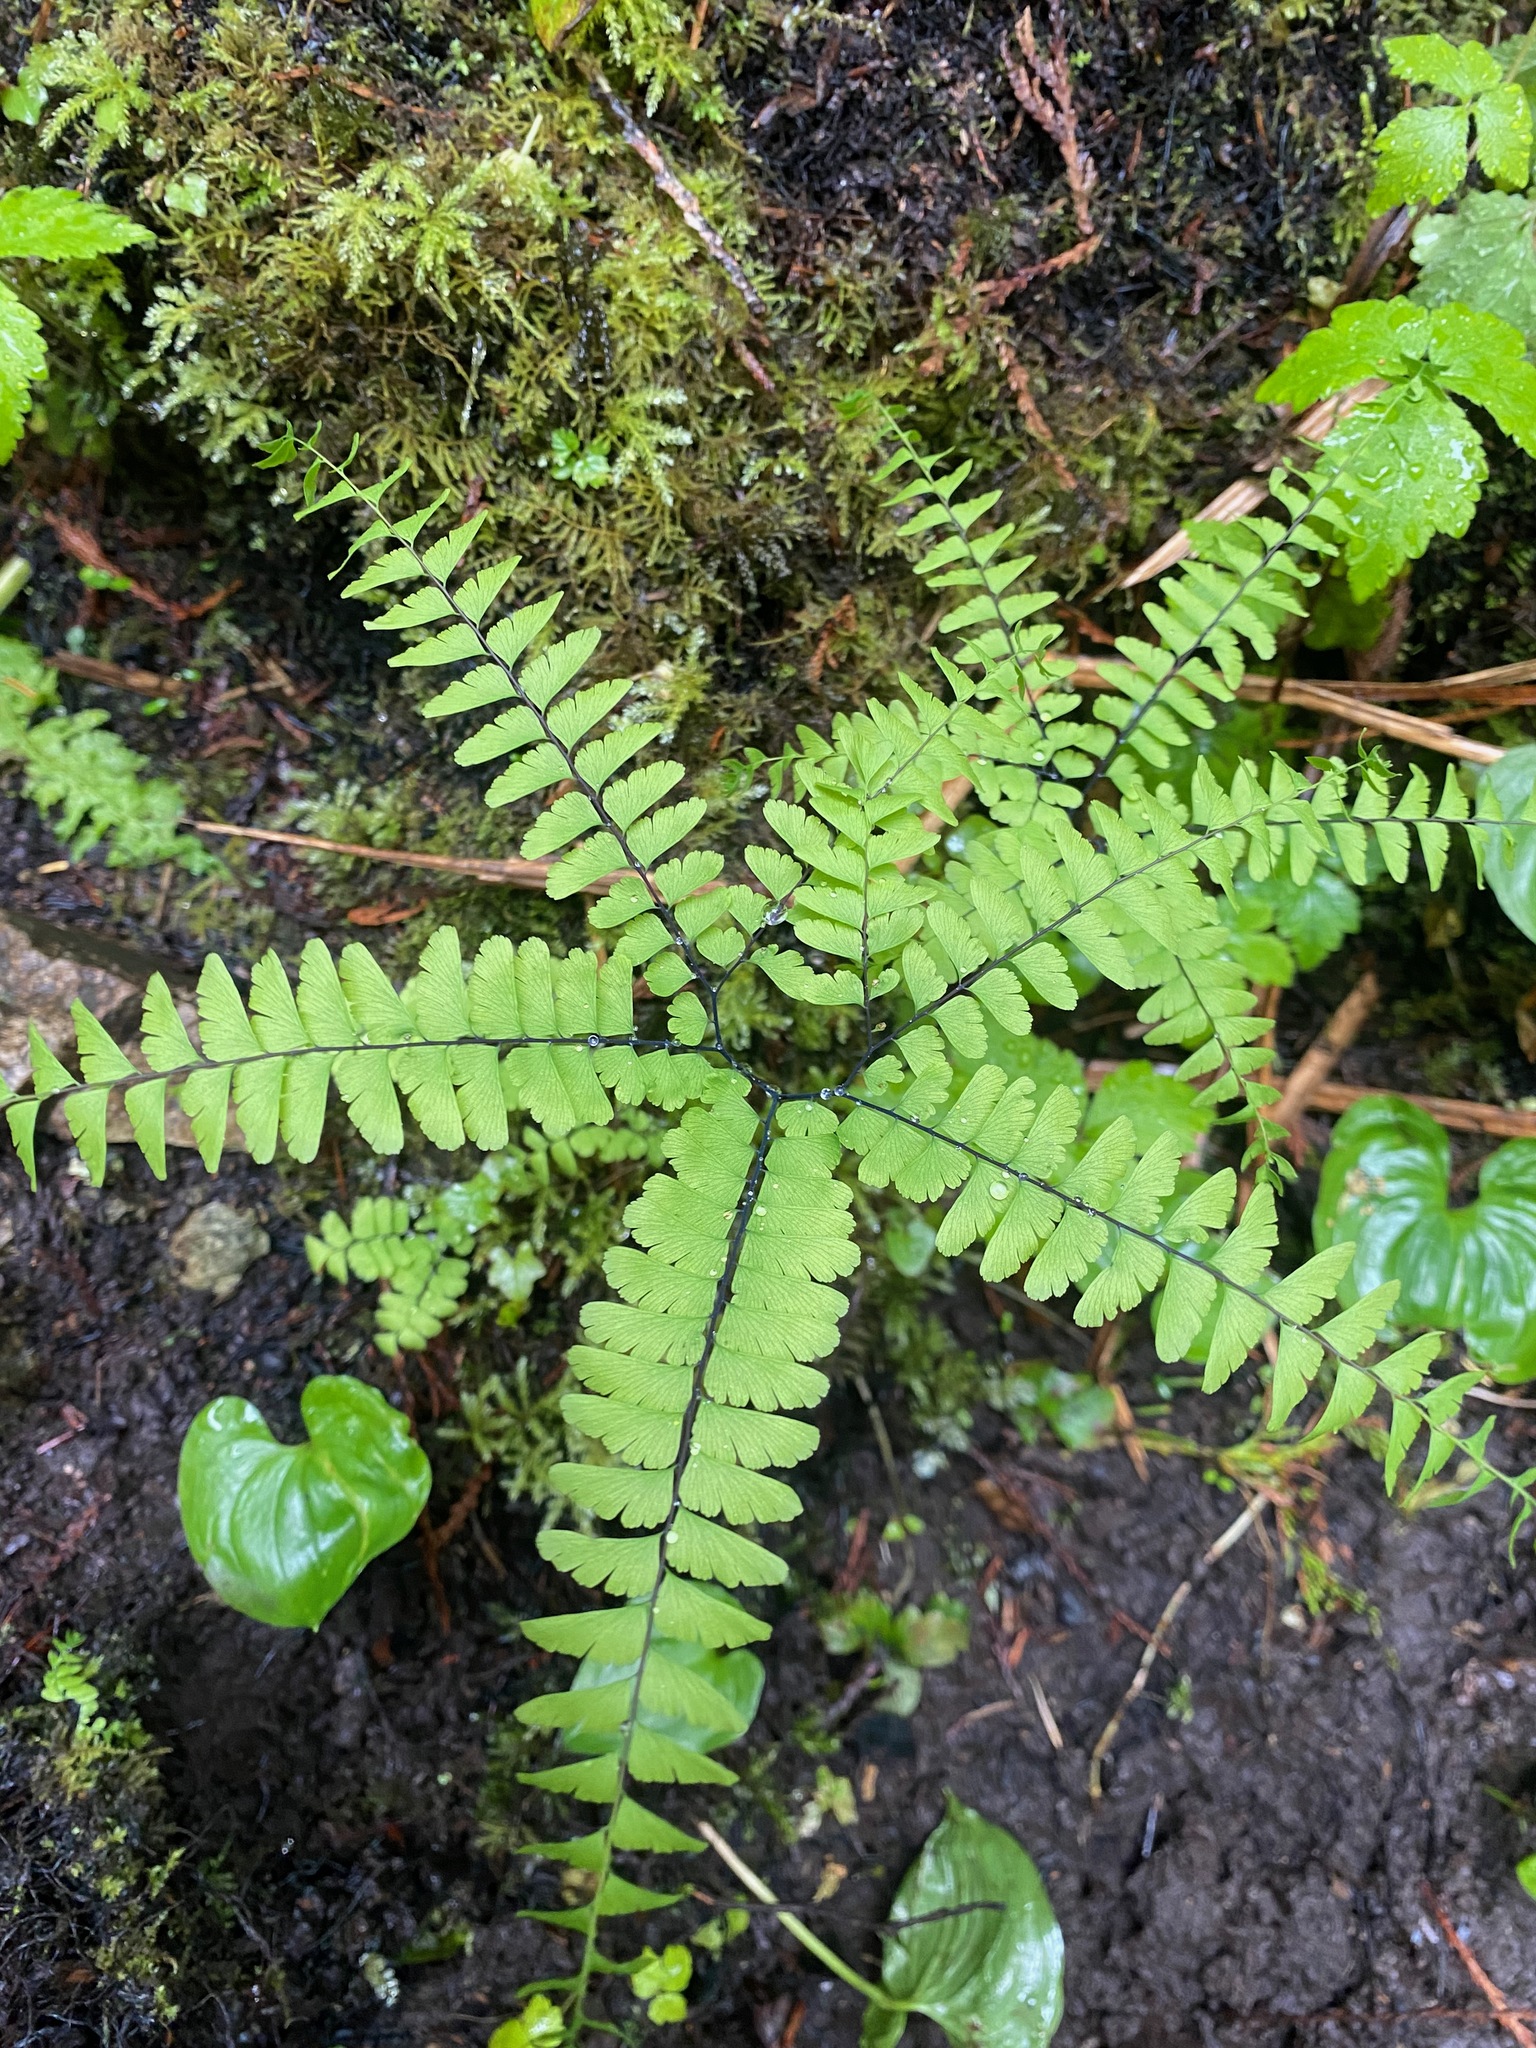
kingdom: Plantae
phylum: Tracheophyta
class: Polypodiopsida
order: Polypodiales
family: Pteridaceae
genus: Adiantum
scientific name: Adiantum aleuticum
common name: Aleutian maidenhair fern
